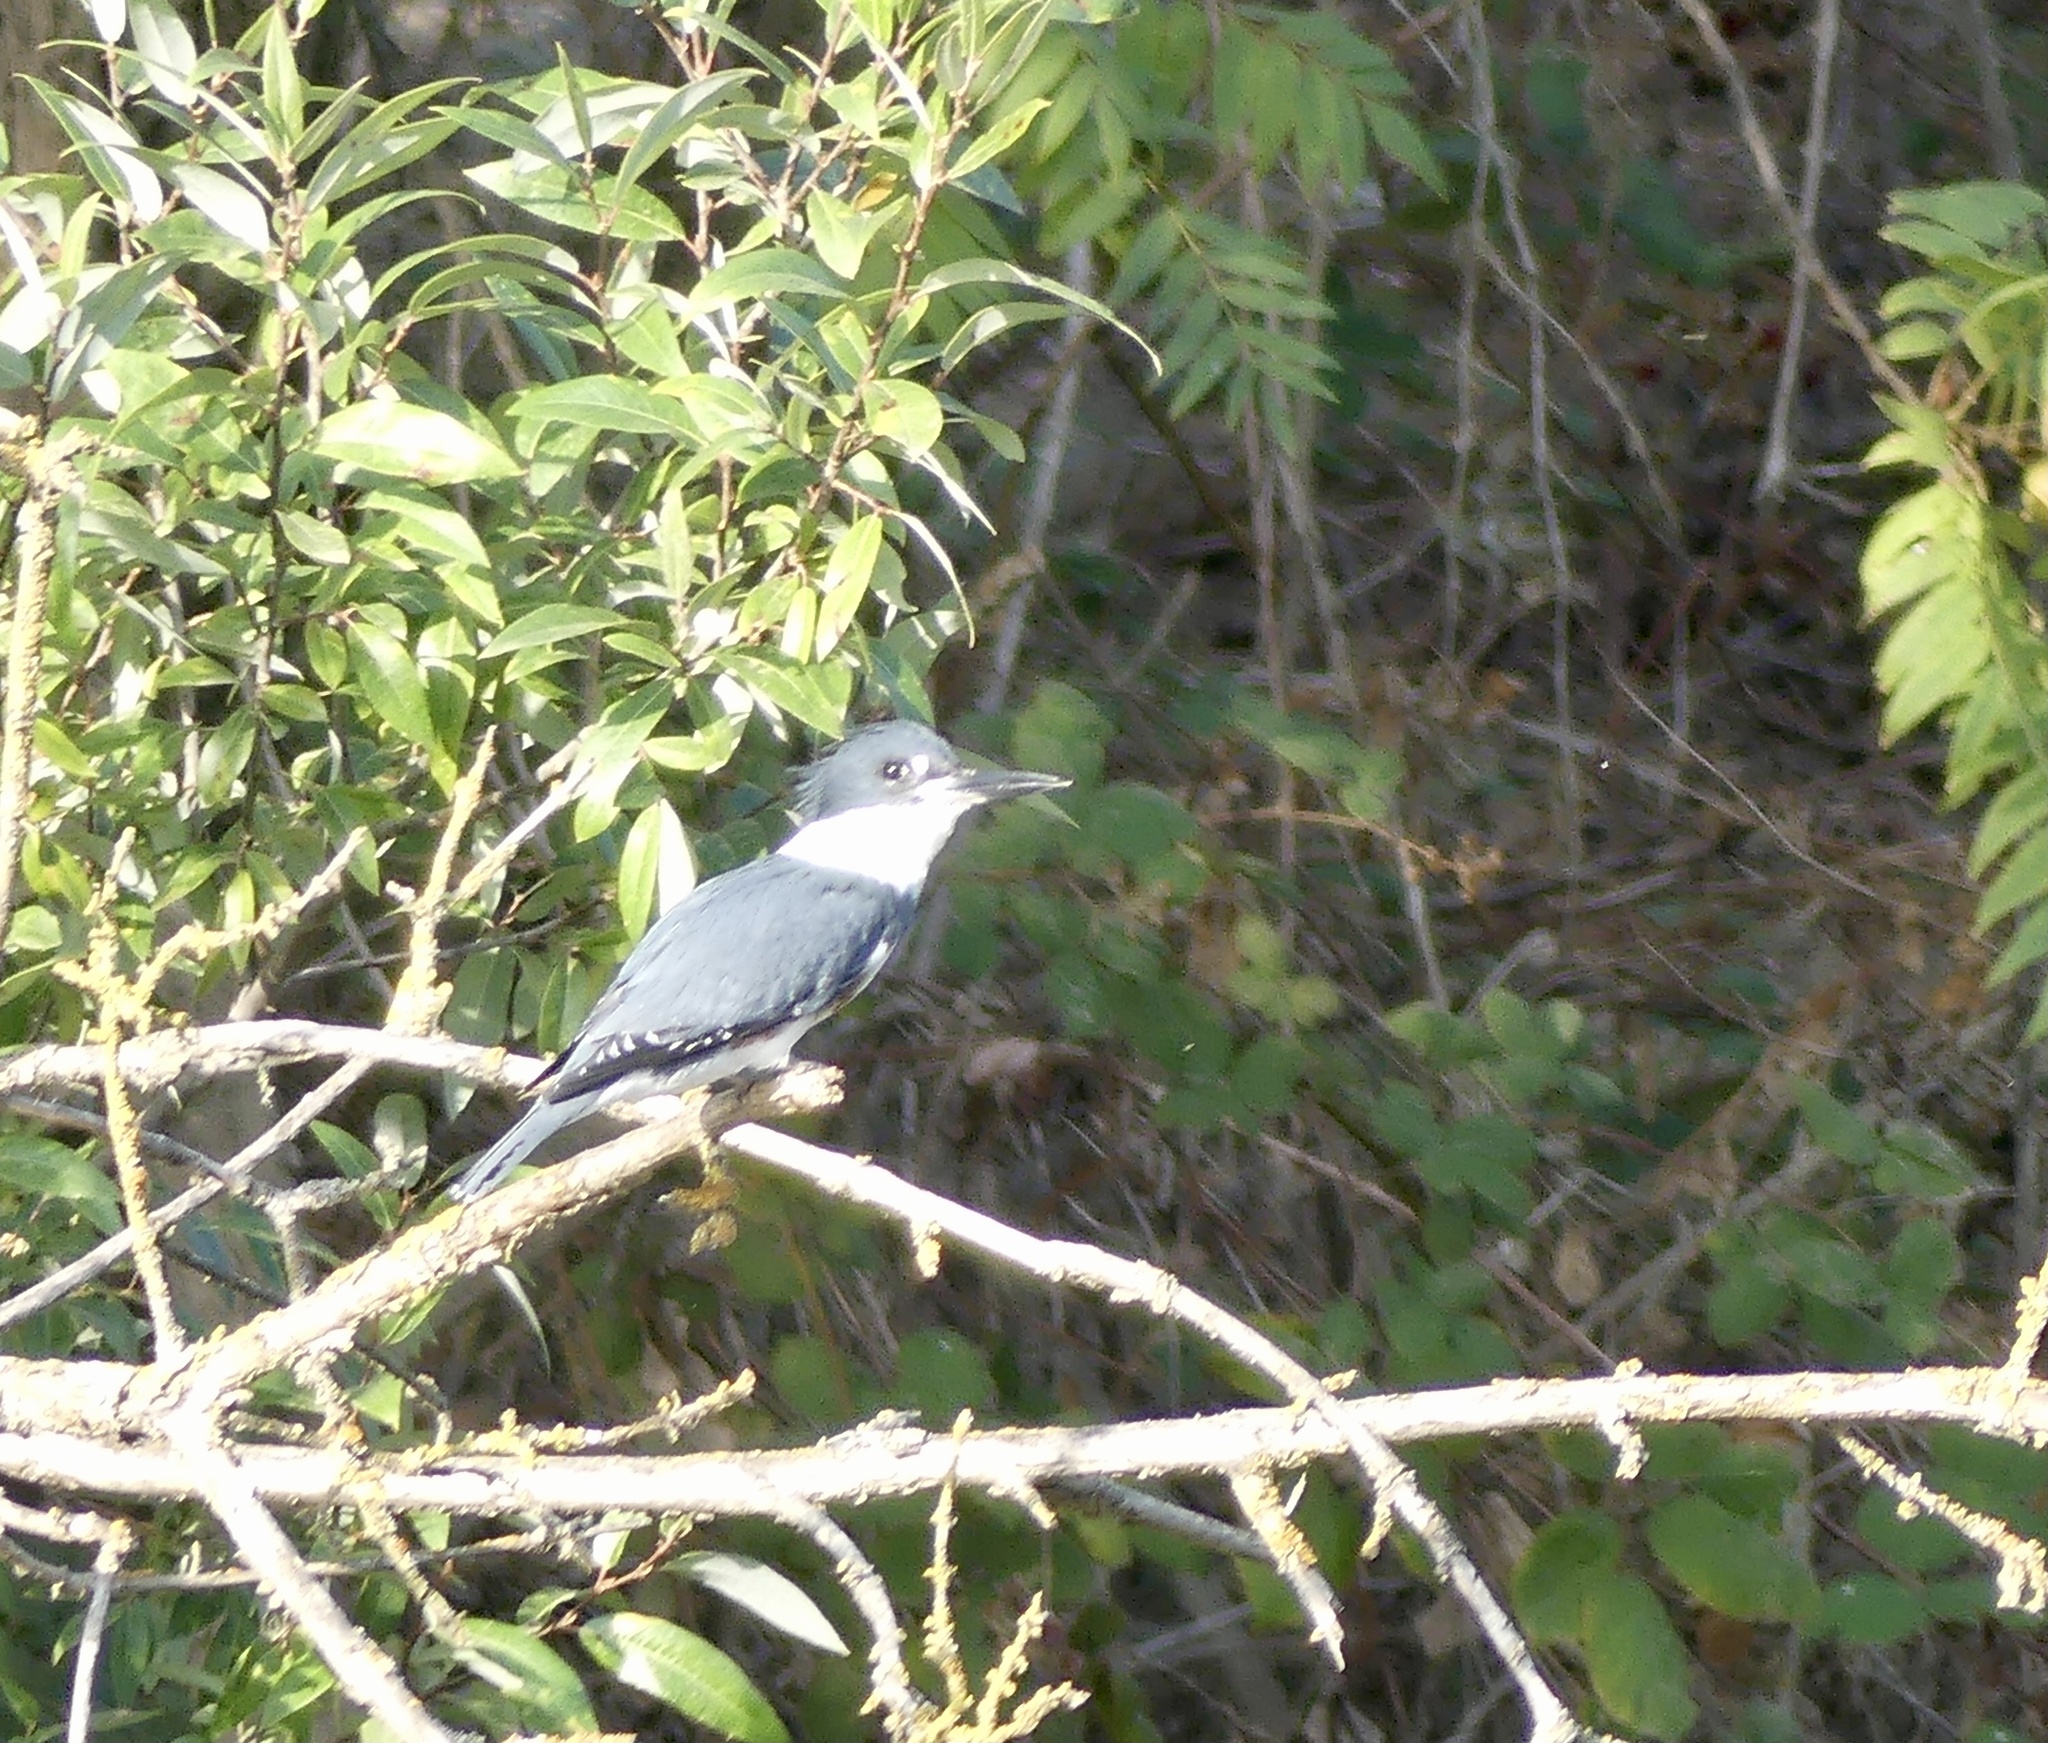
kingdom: Animalia
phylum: Chordata
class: Aves
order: Coraciiformes
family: Alcedinidae
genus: Megaceryle
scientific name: Megaceryle alcyon
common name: Belted kingfisher
